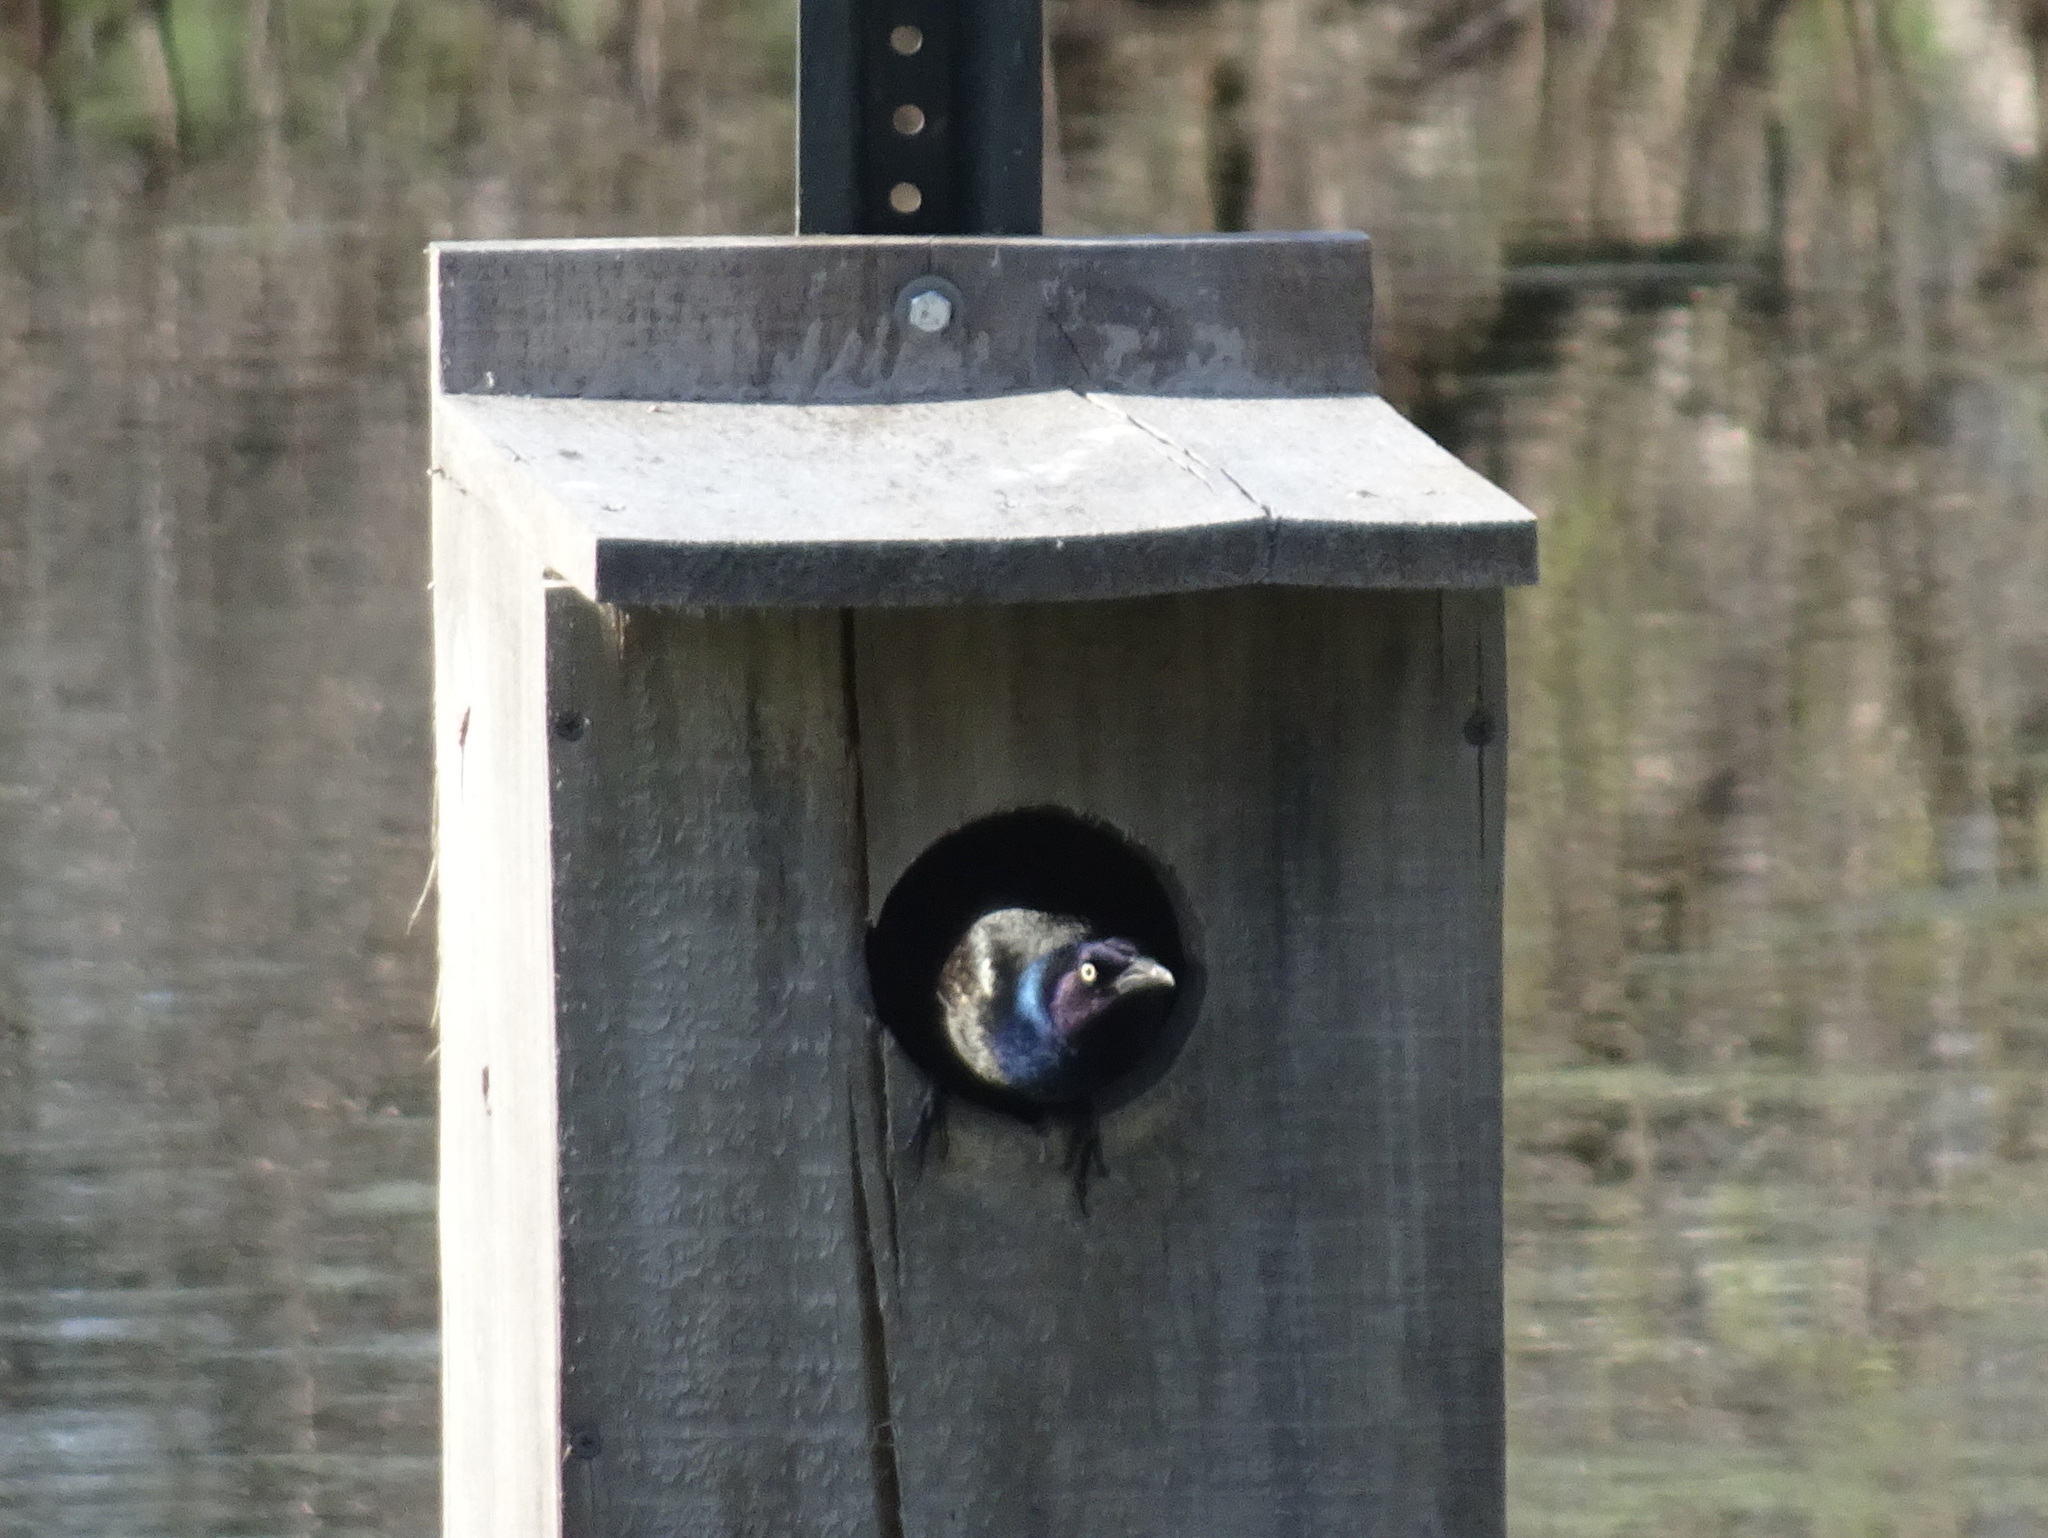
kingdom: Animalia
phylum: Chordata
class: Aves
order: Passeriformes
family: Icteridae
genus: Quiscalus
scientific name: Quiscalus quiscula
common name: Common grackle
